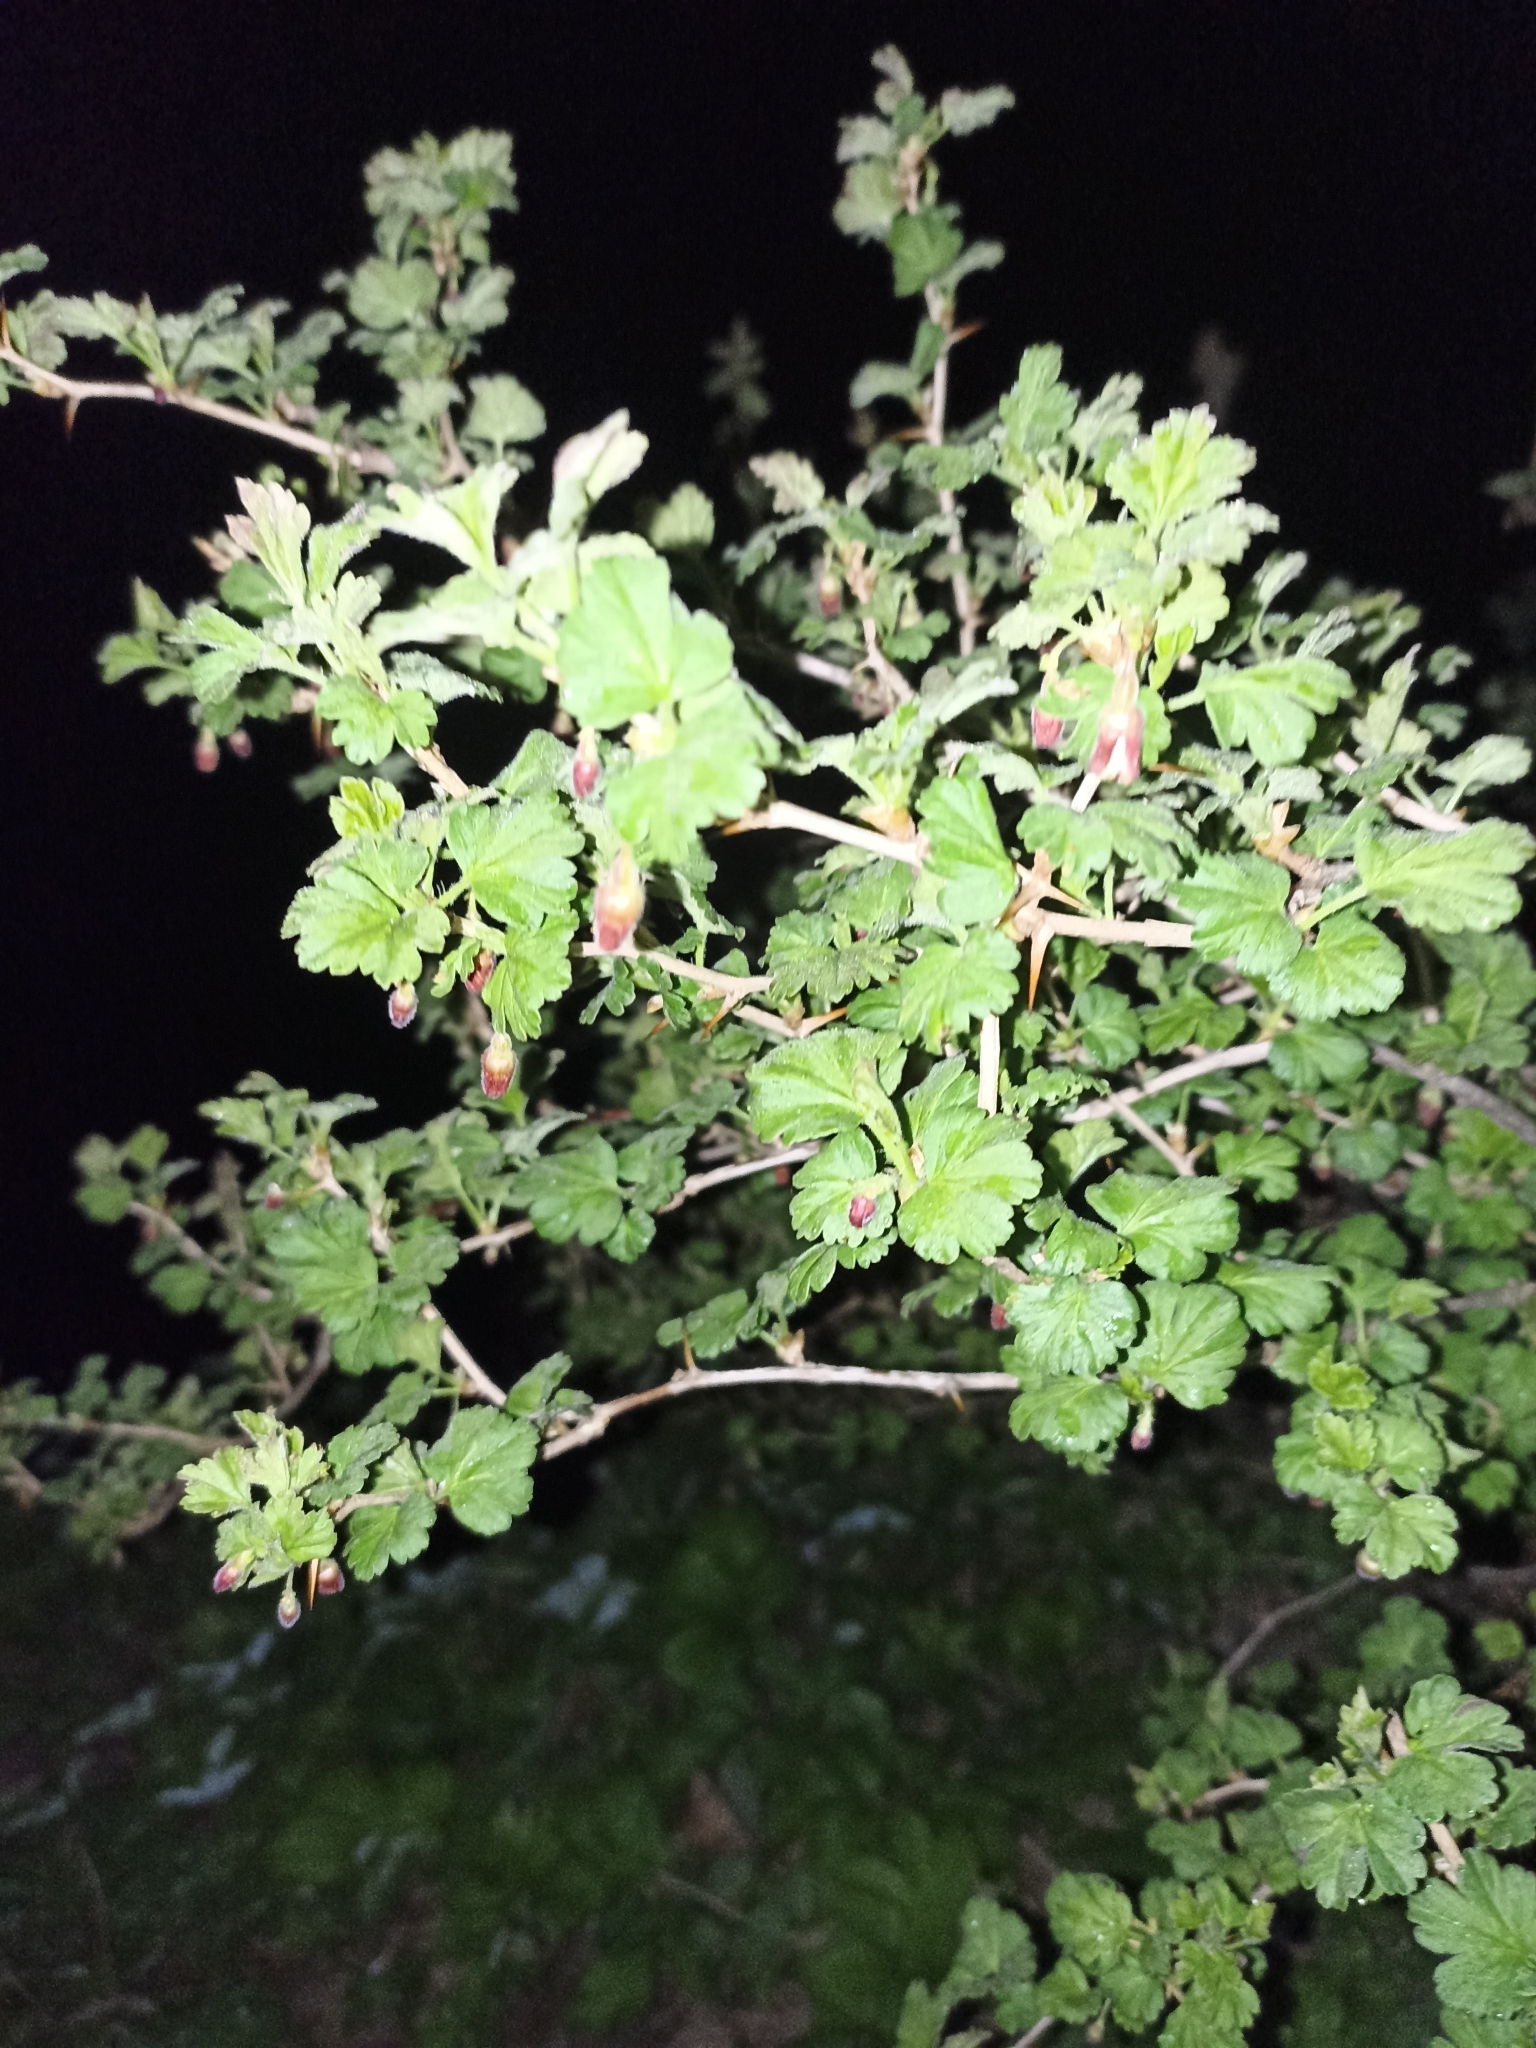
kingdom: Plantae
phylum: Tracheophyta
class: Magnoliopsida
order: Saxifragales
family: Grossulariaceae
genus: Ribes
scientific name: Ribes uva-crispa
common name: Gooseberry
